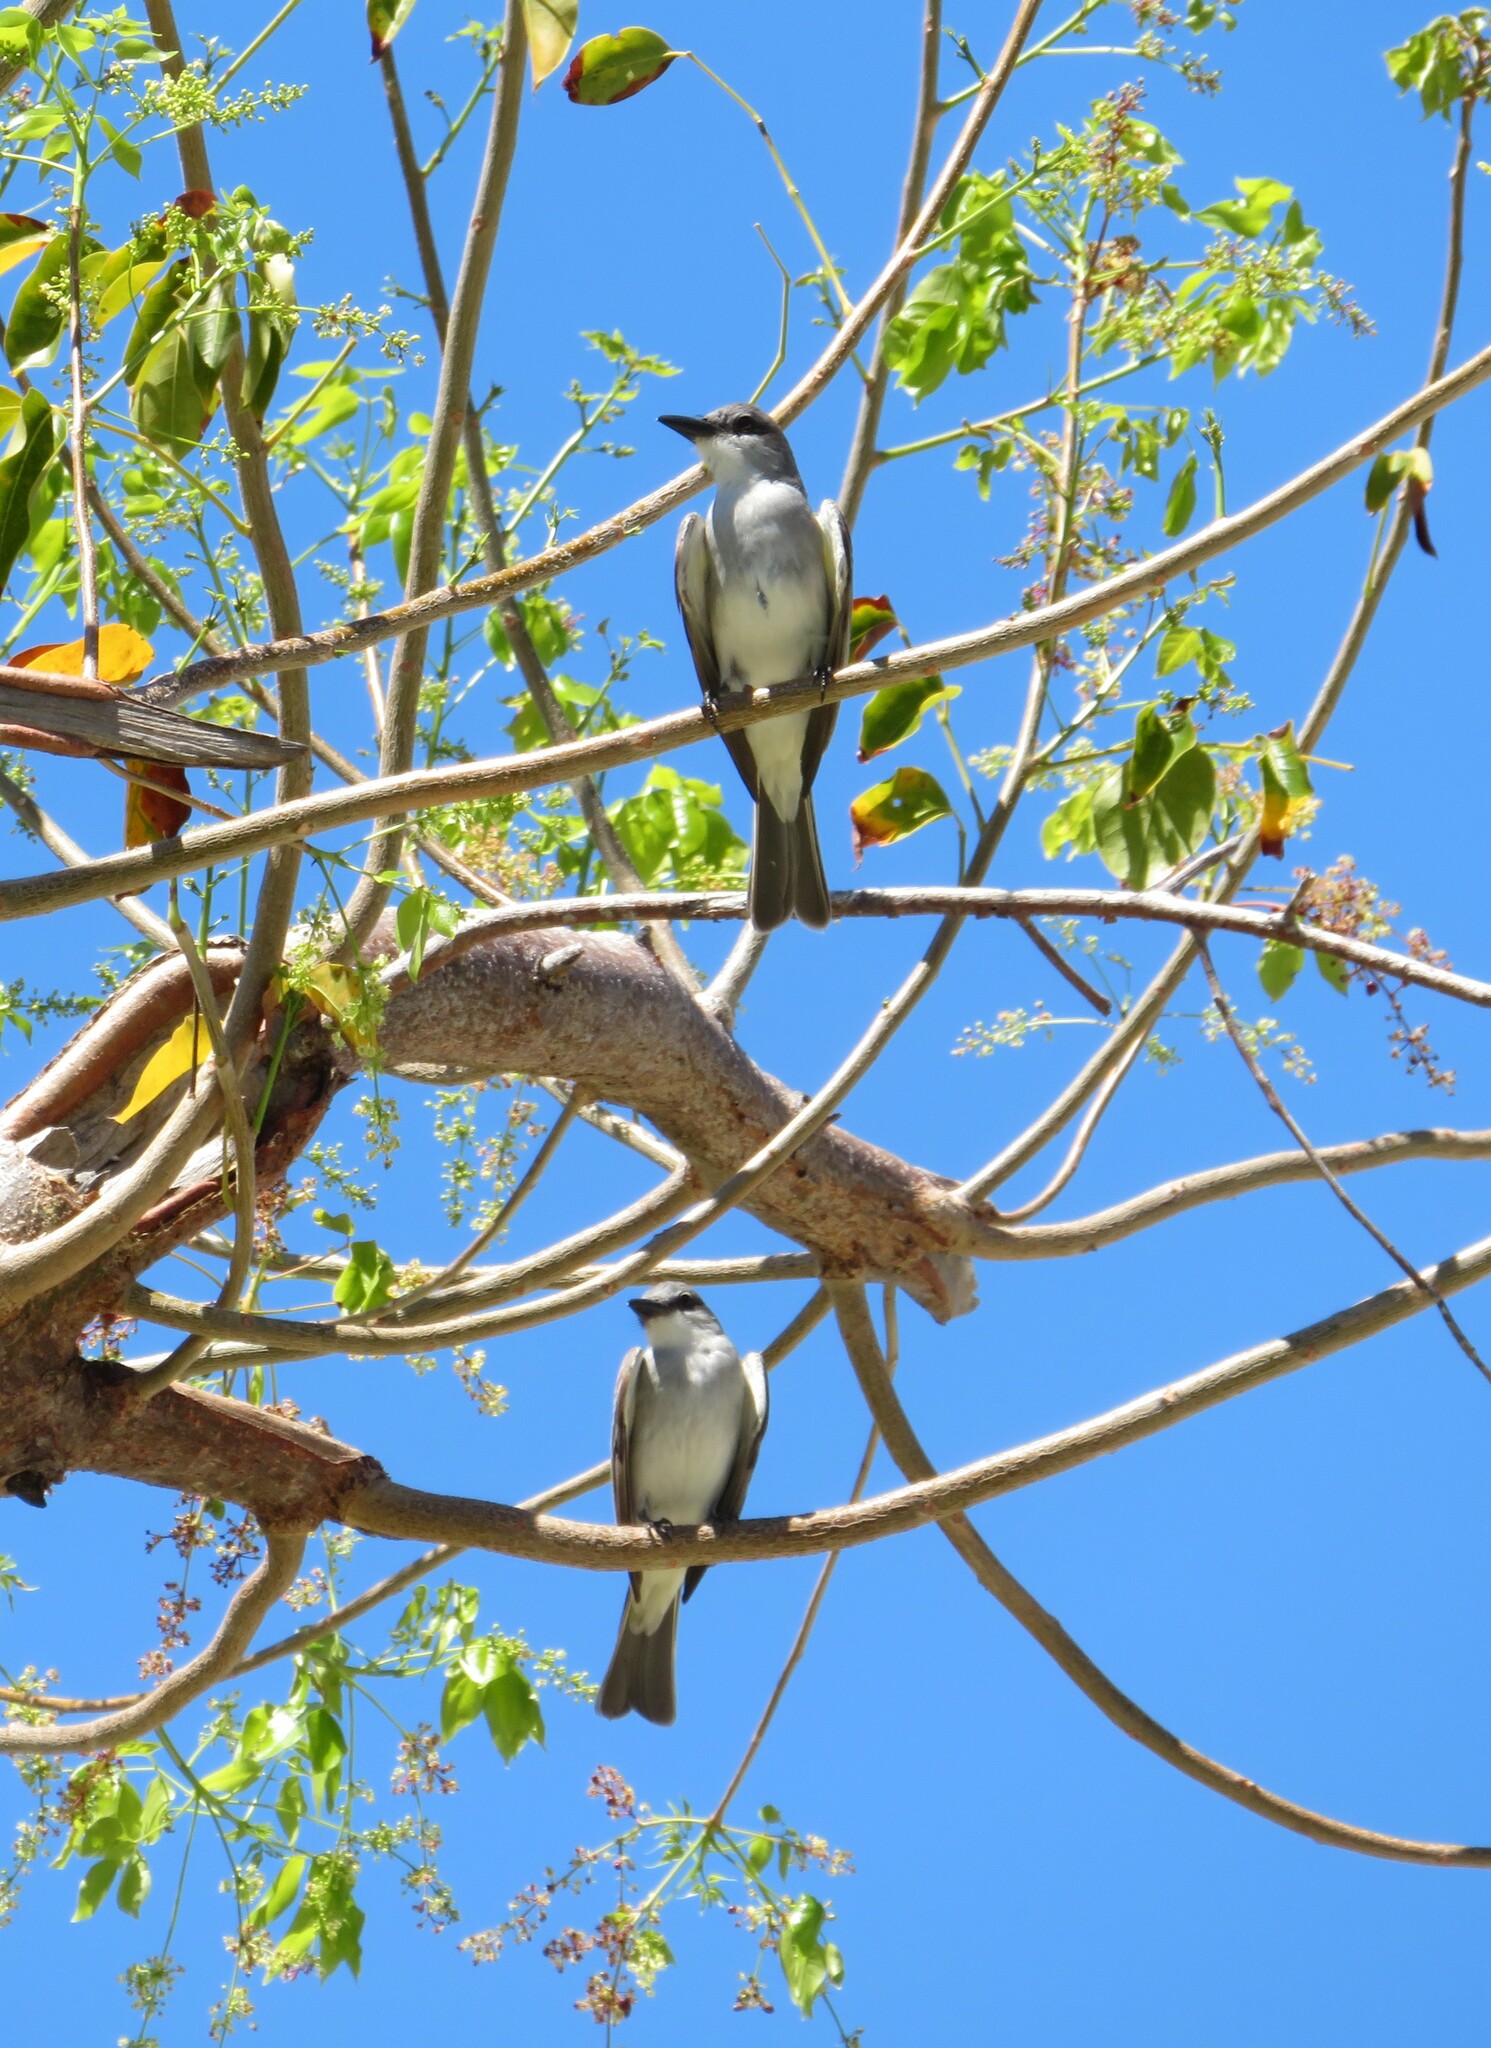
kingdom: Animalia
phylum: Chordata
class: Aves
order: Passeriformes
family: Tyrannidae
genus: Tyrannus
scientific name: Tyrannus dominicensis
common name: Gray kingbird
